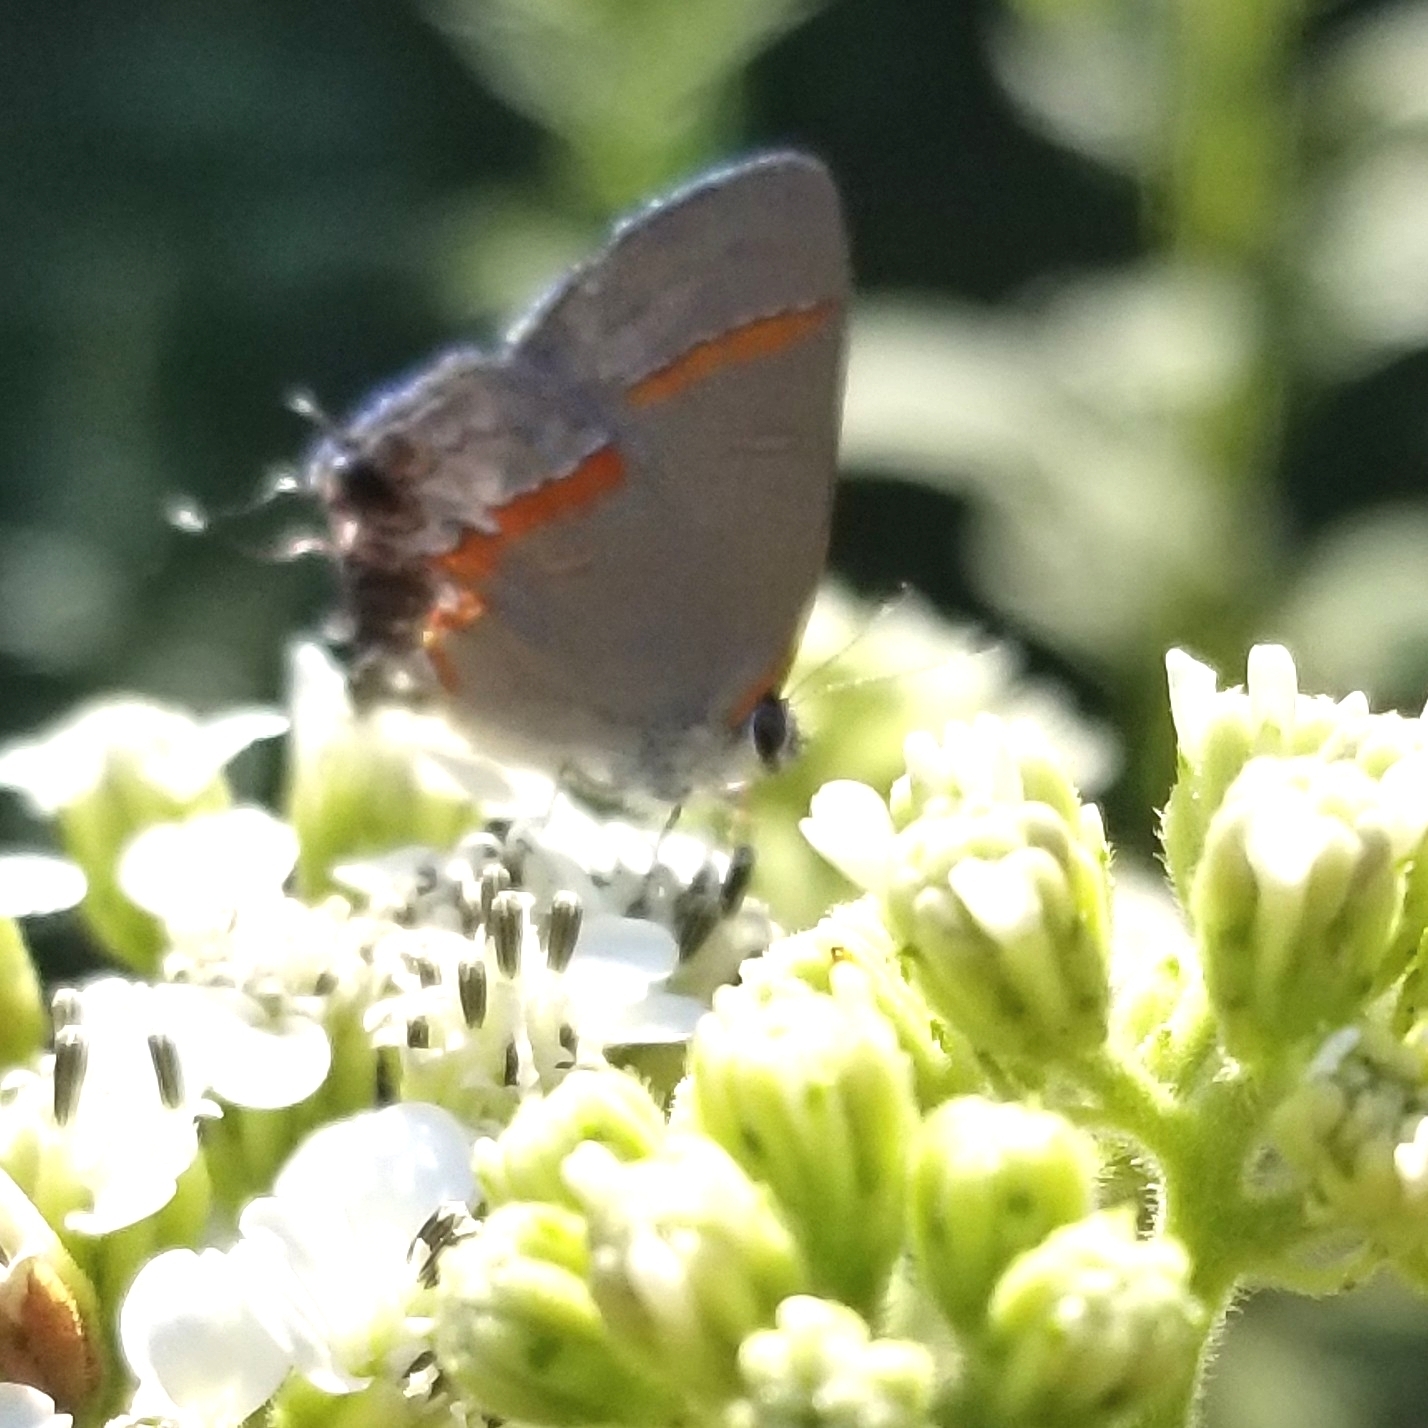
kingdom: Animalia
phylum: Arthropoda
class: Insecta
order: Lepidoptera
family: Lycaenidae
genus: Calycopis
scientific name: Calycopis cecrops
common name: Red-banded hairstreak
